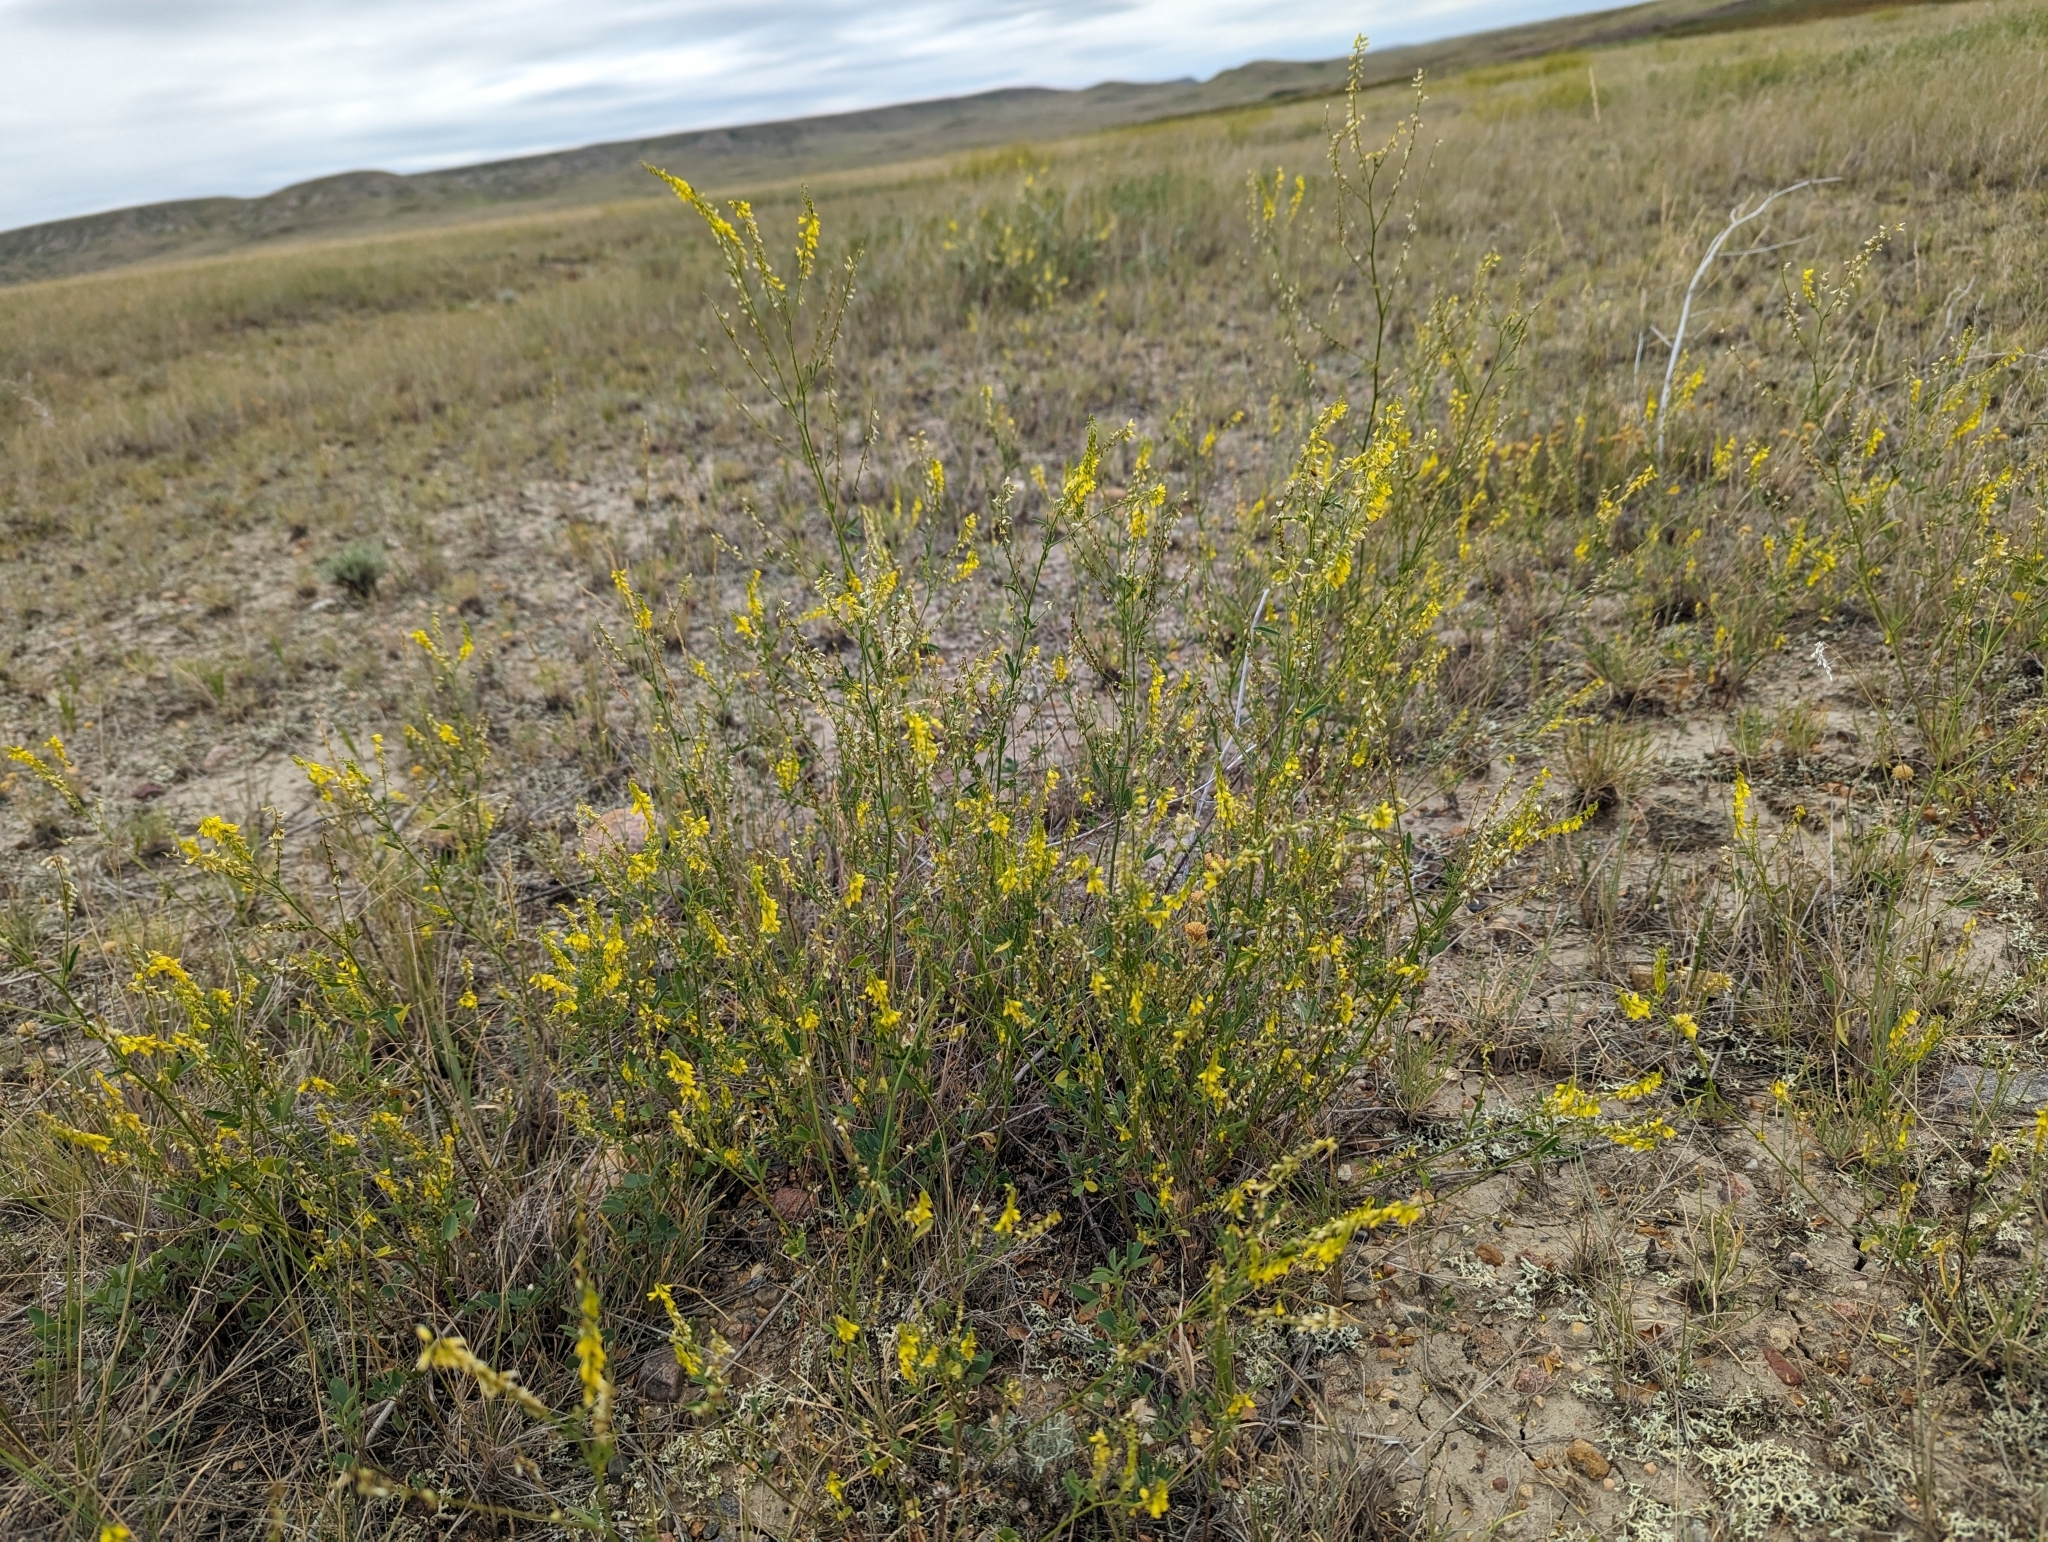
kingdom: Plantae
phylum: Tracheophyta
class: Magnoliopsida
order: Fabales
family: Fabaceae
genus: Melilotus
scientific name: Melilotus officinalis
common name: Sweetclover
